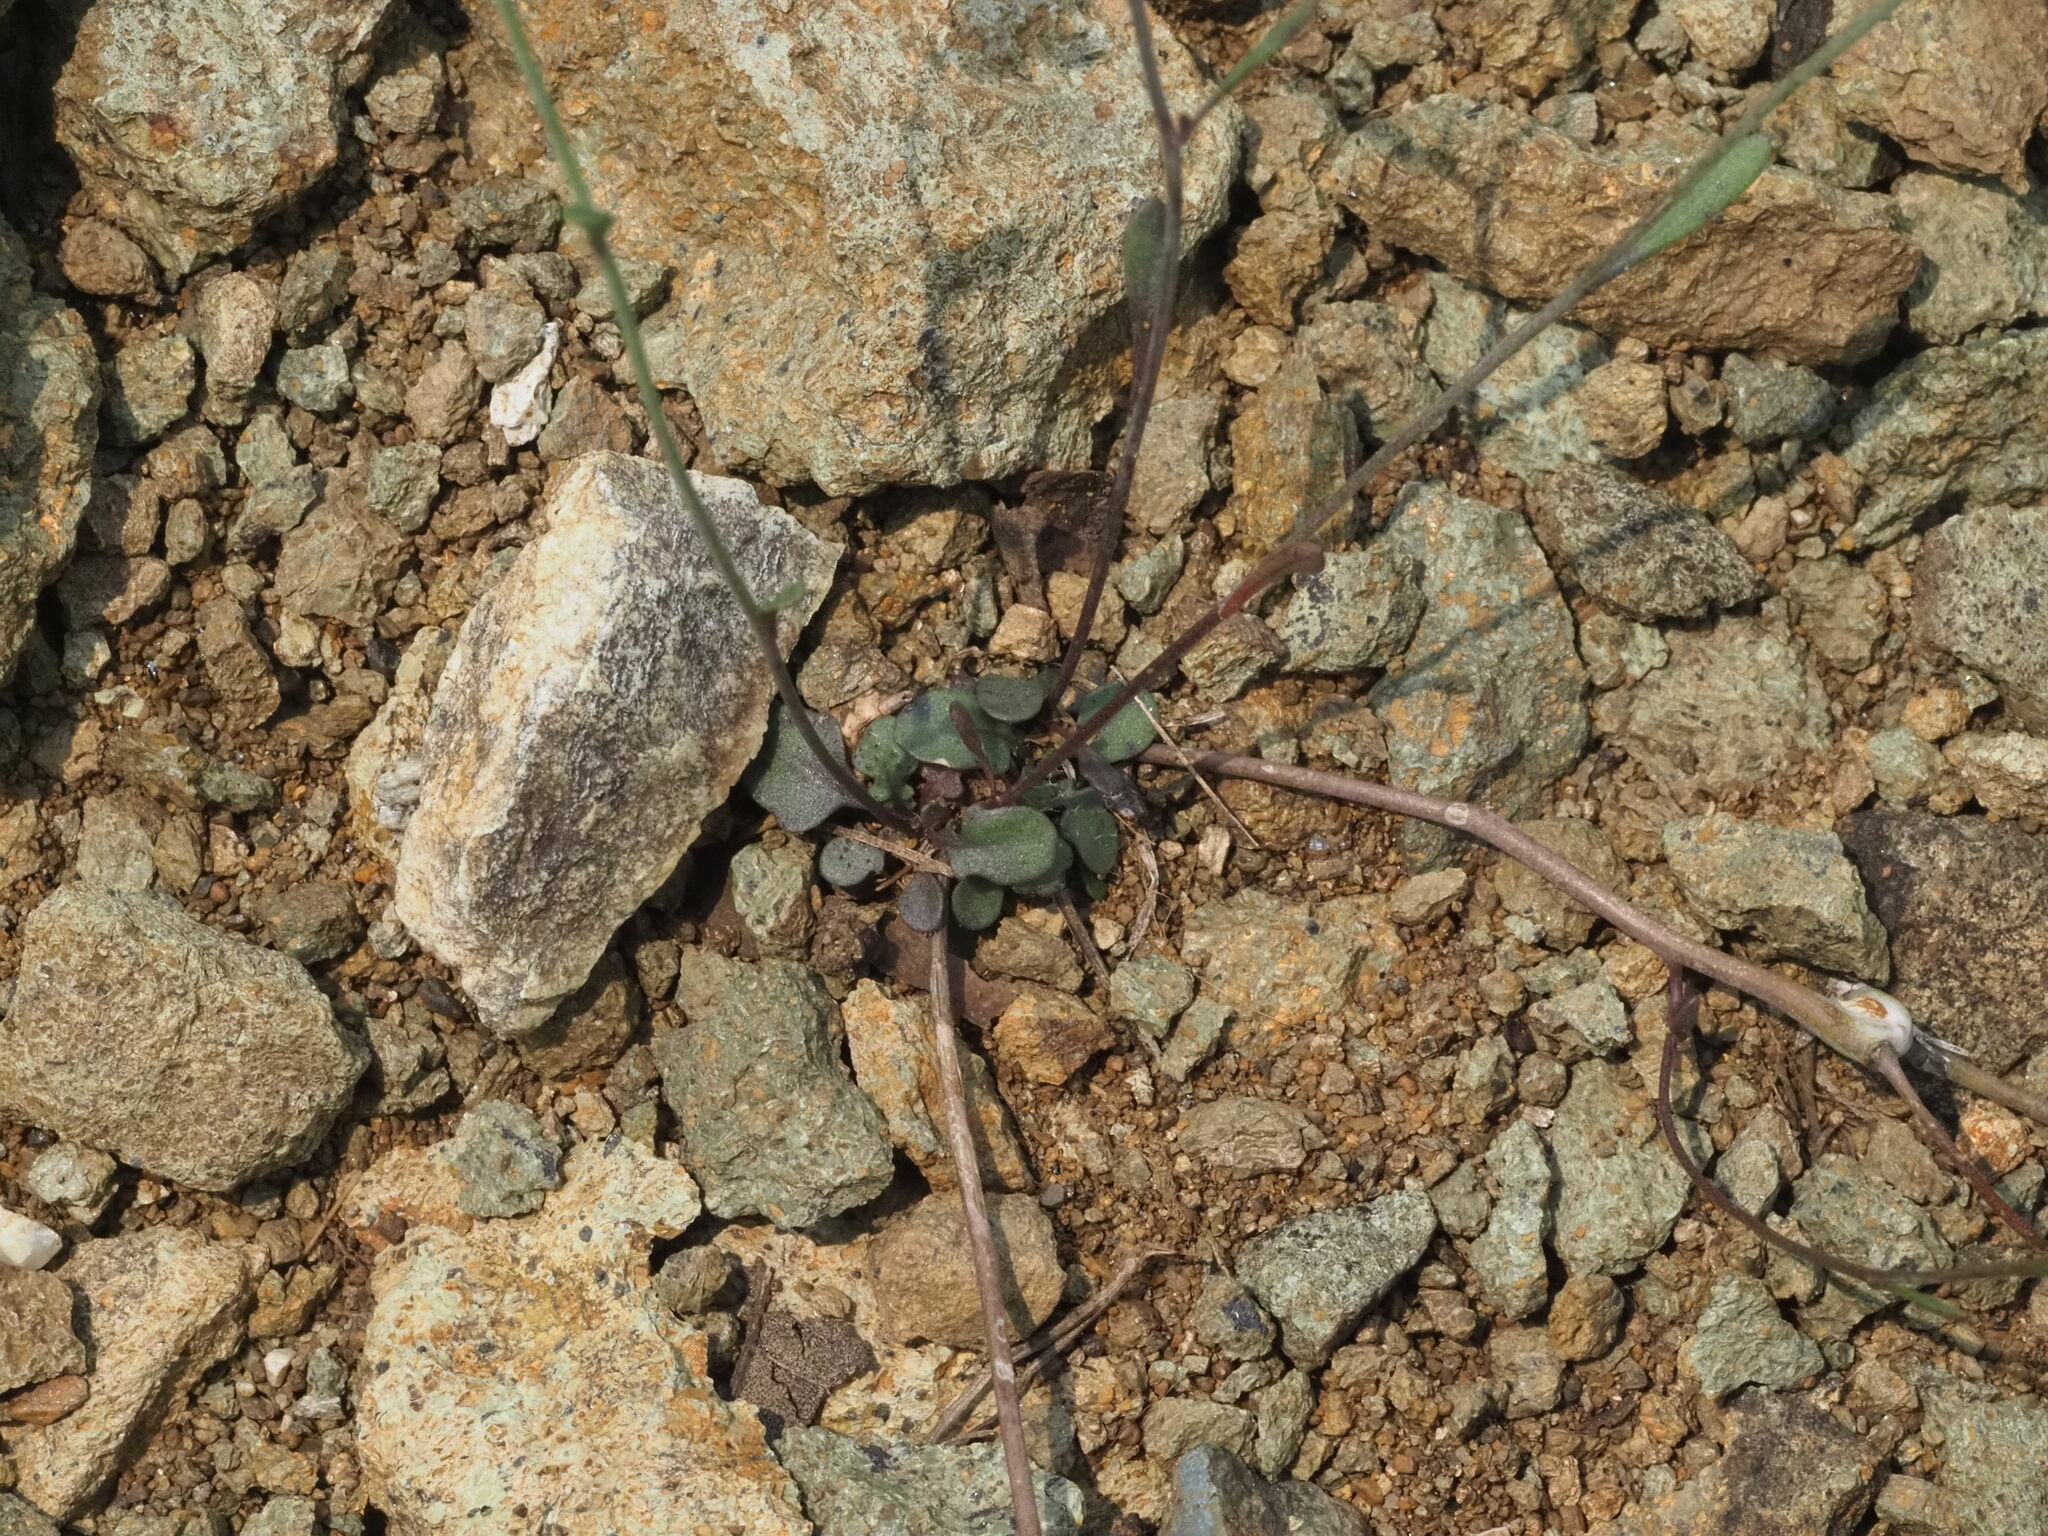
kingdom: Plantae
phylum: Tracheophyta
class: Magnoliopsida
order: Brassicales
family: Brassicaceae
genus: Arabidopsis
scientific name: Arabidopsis lyrata
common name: Lyrate rockcress
